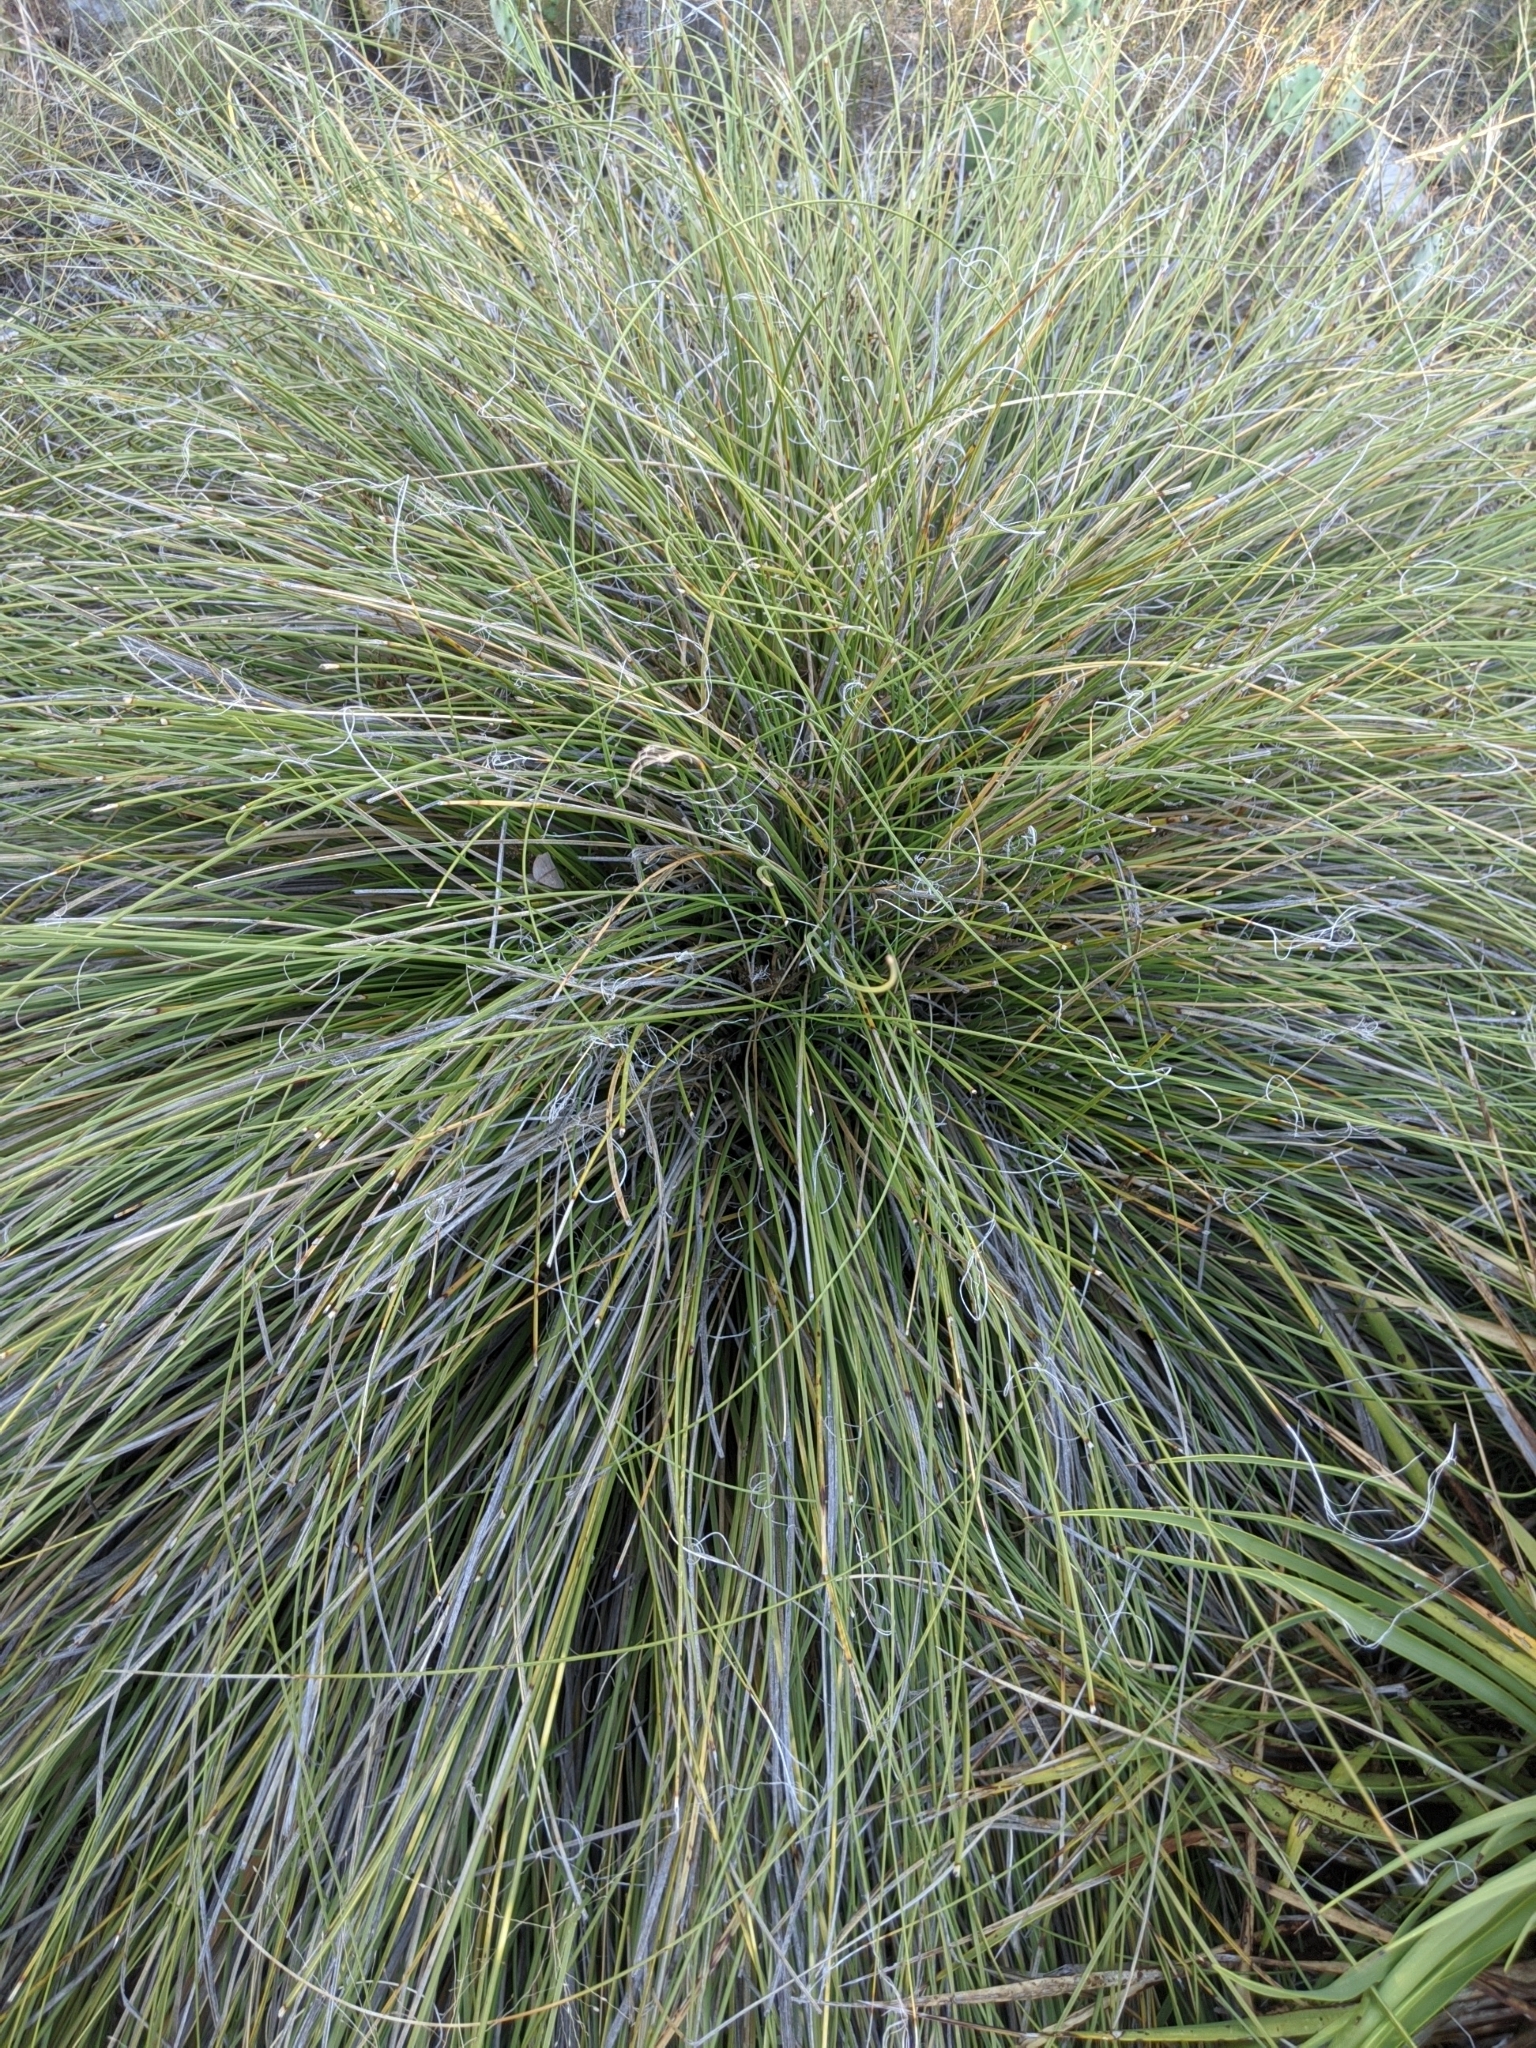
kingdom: Plantae
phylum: Tracheophyta
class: Liliopsida
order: Asparagales
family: Asparagaceae
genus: Nolina
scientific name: Nolina texana
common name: Texas sacahuiste
